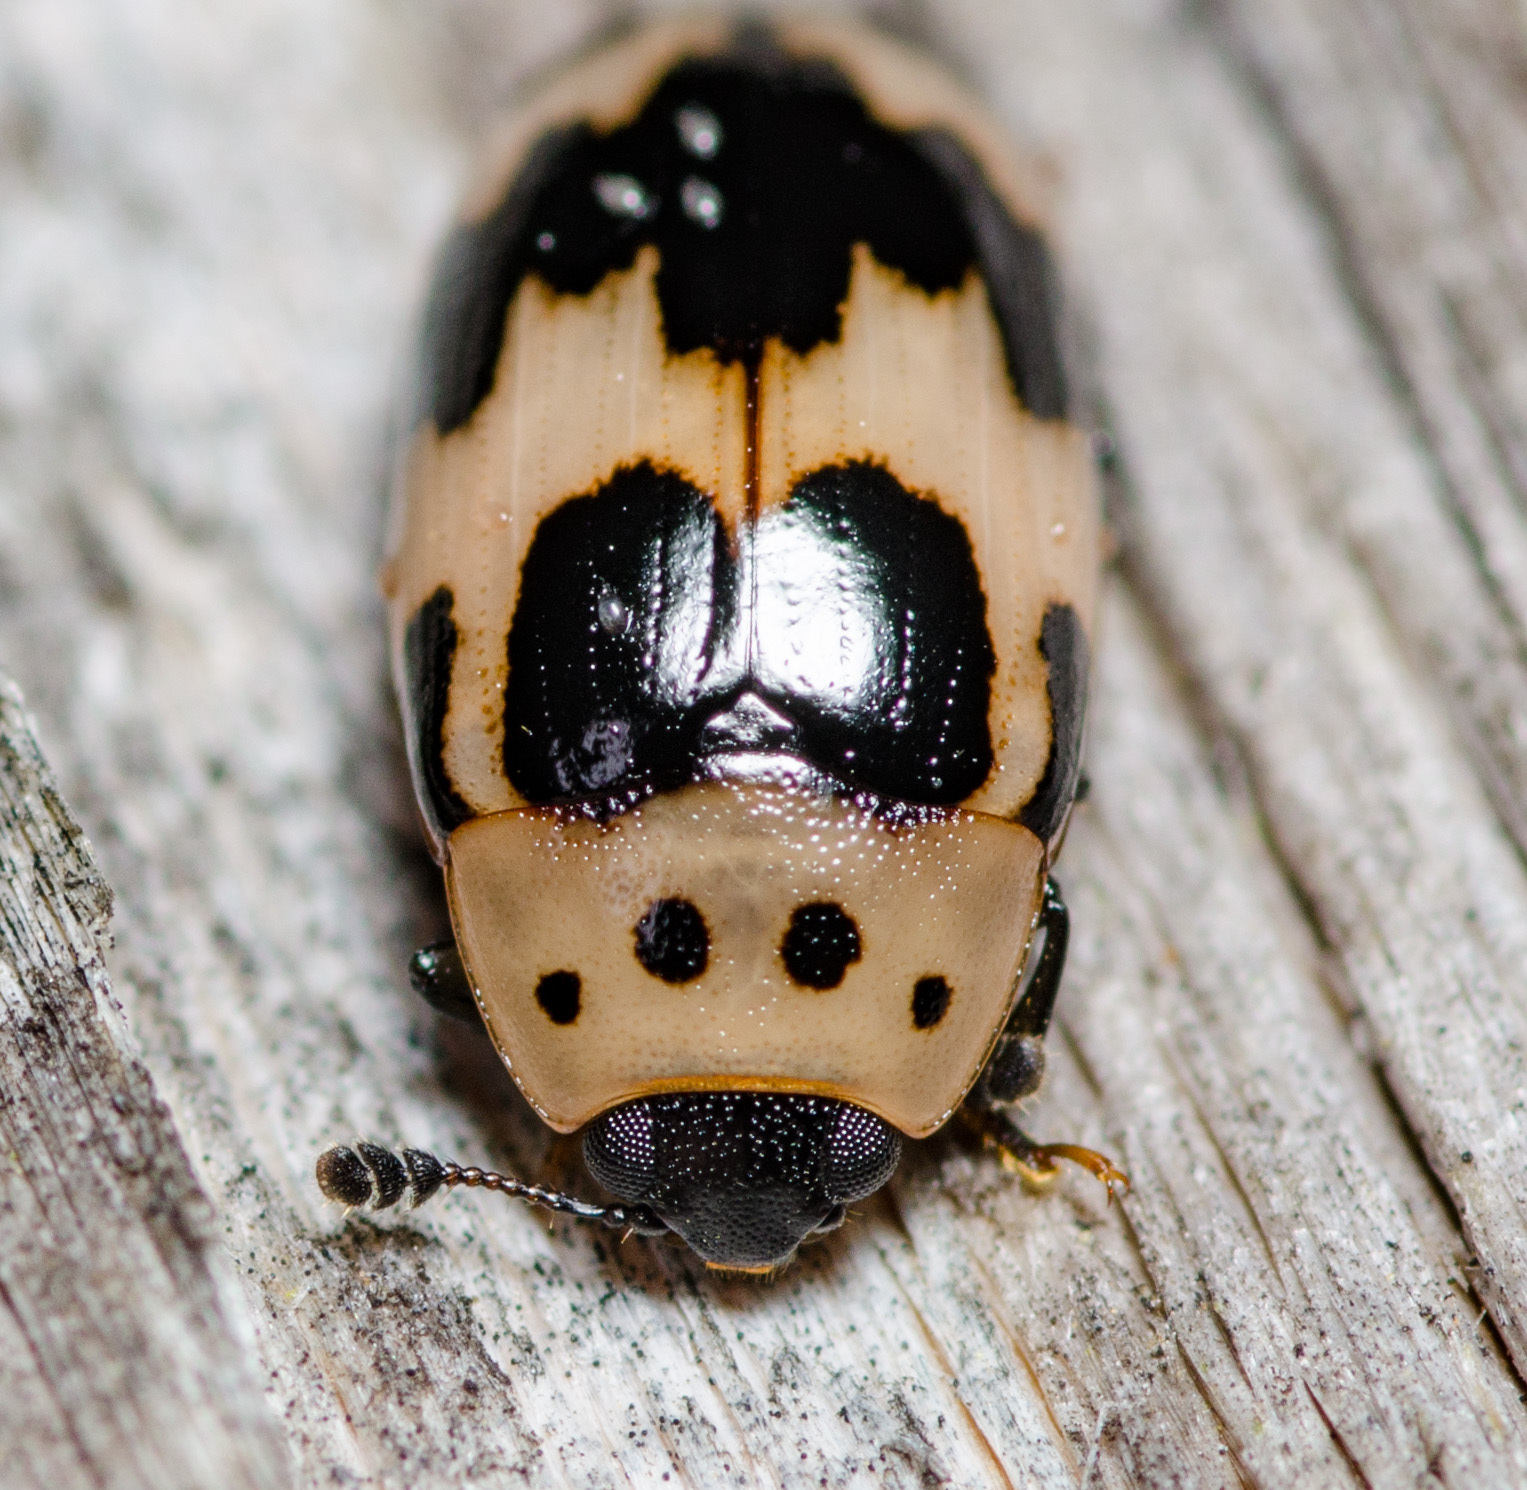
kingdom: Animalia
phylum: Arthropoda
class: Insecta
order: Coleoptera
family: Erotylidae
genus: Ischyrus
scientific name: Ischyrus quadripunctatus
